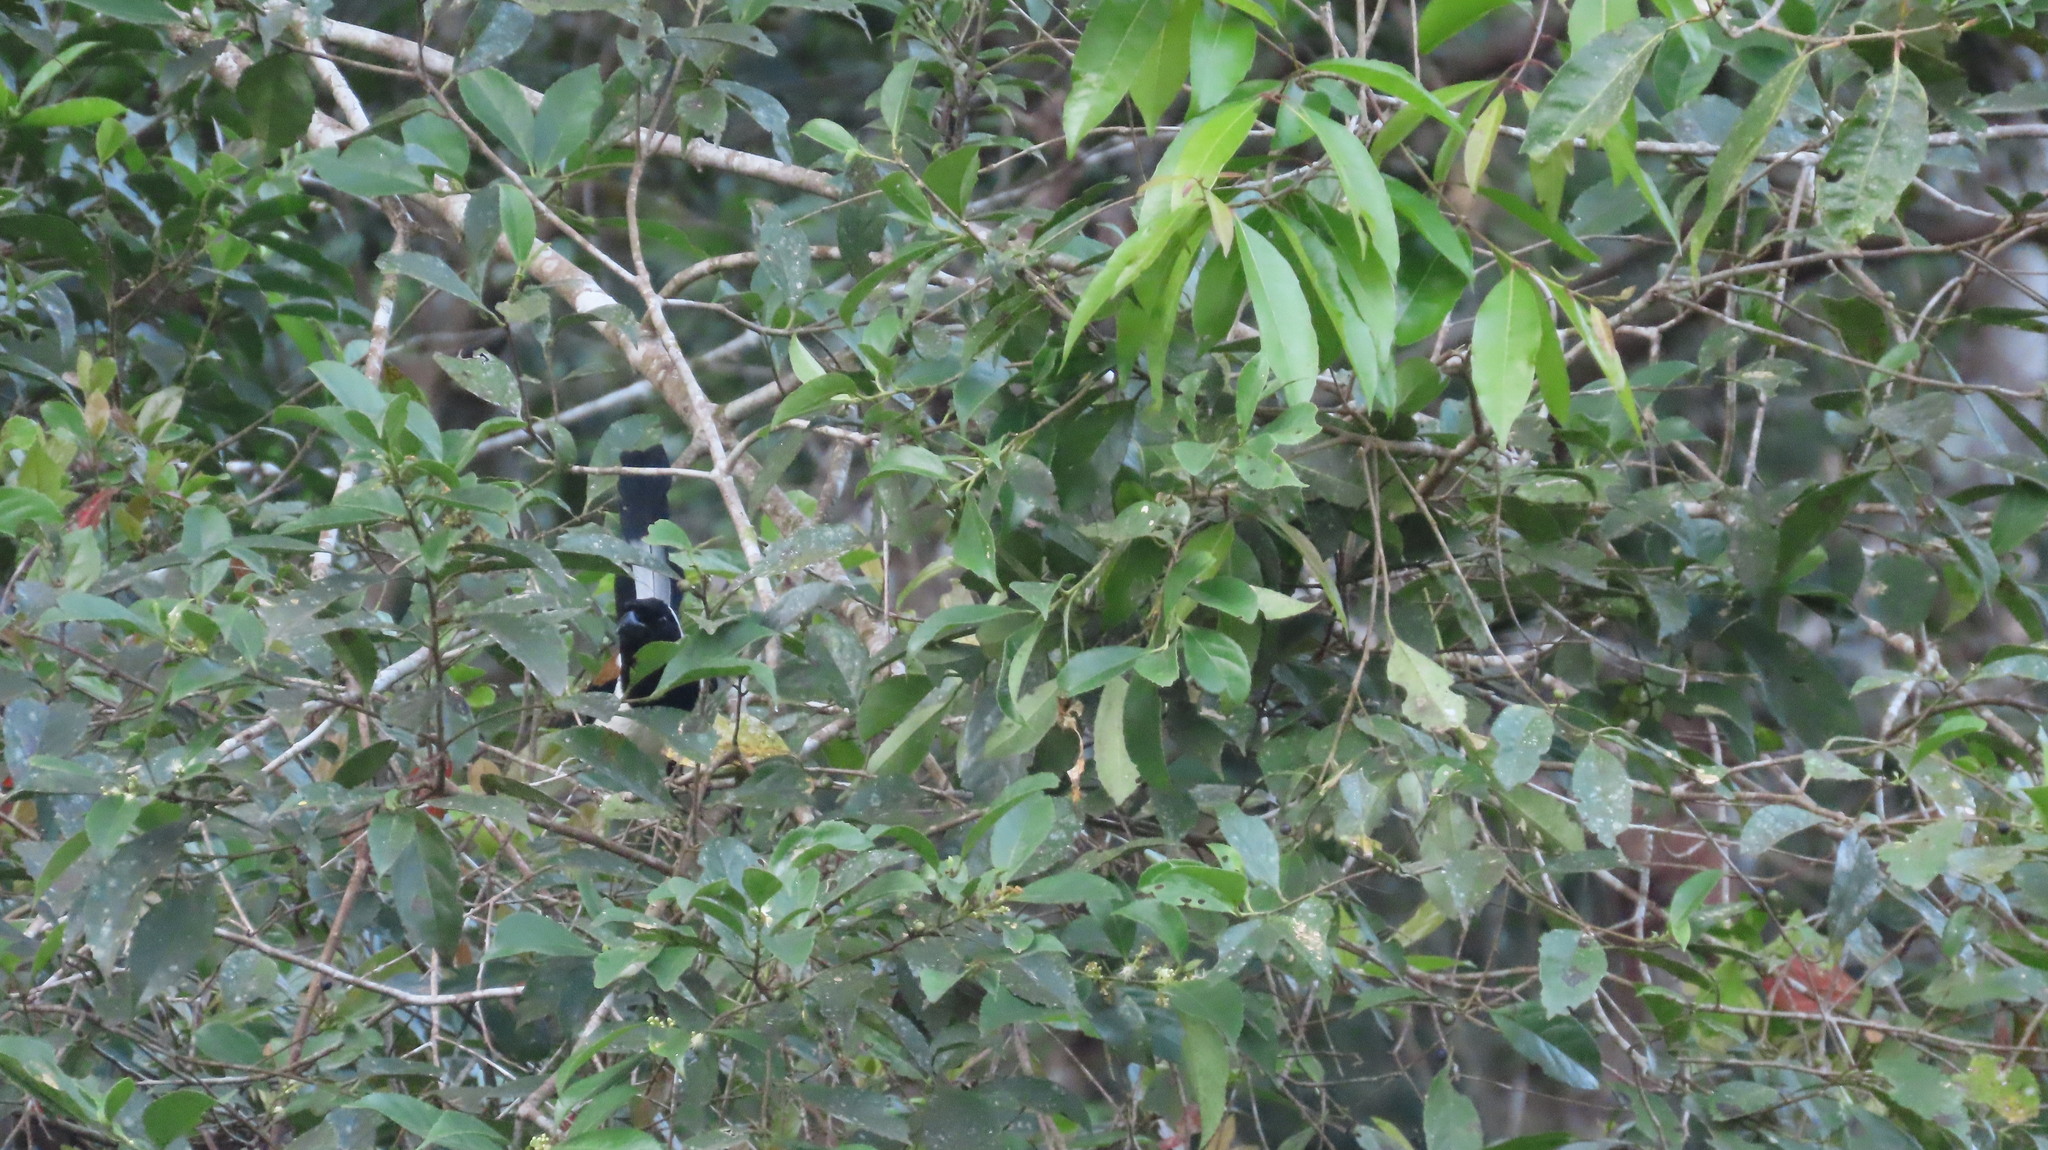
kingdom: Animalia
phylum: Chordata
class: Aves
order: Passeriformes
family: Corvidae
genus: Dendrocitta
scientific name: Dendrocitta leucogastra
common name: White-bellied treepie
